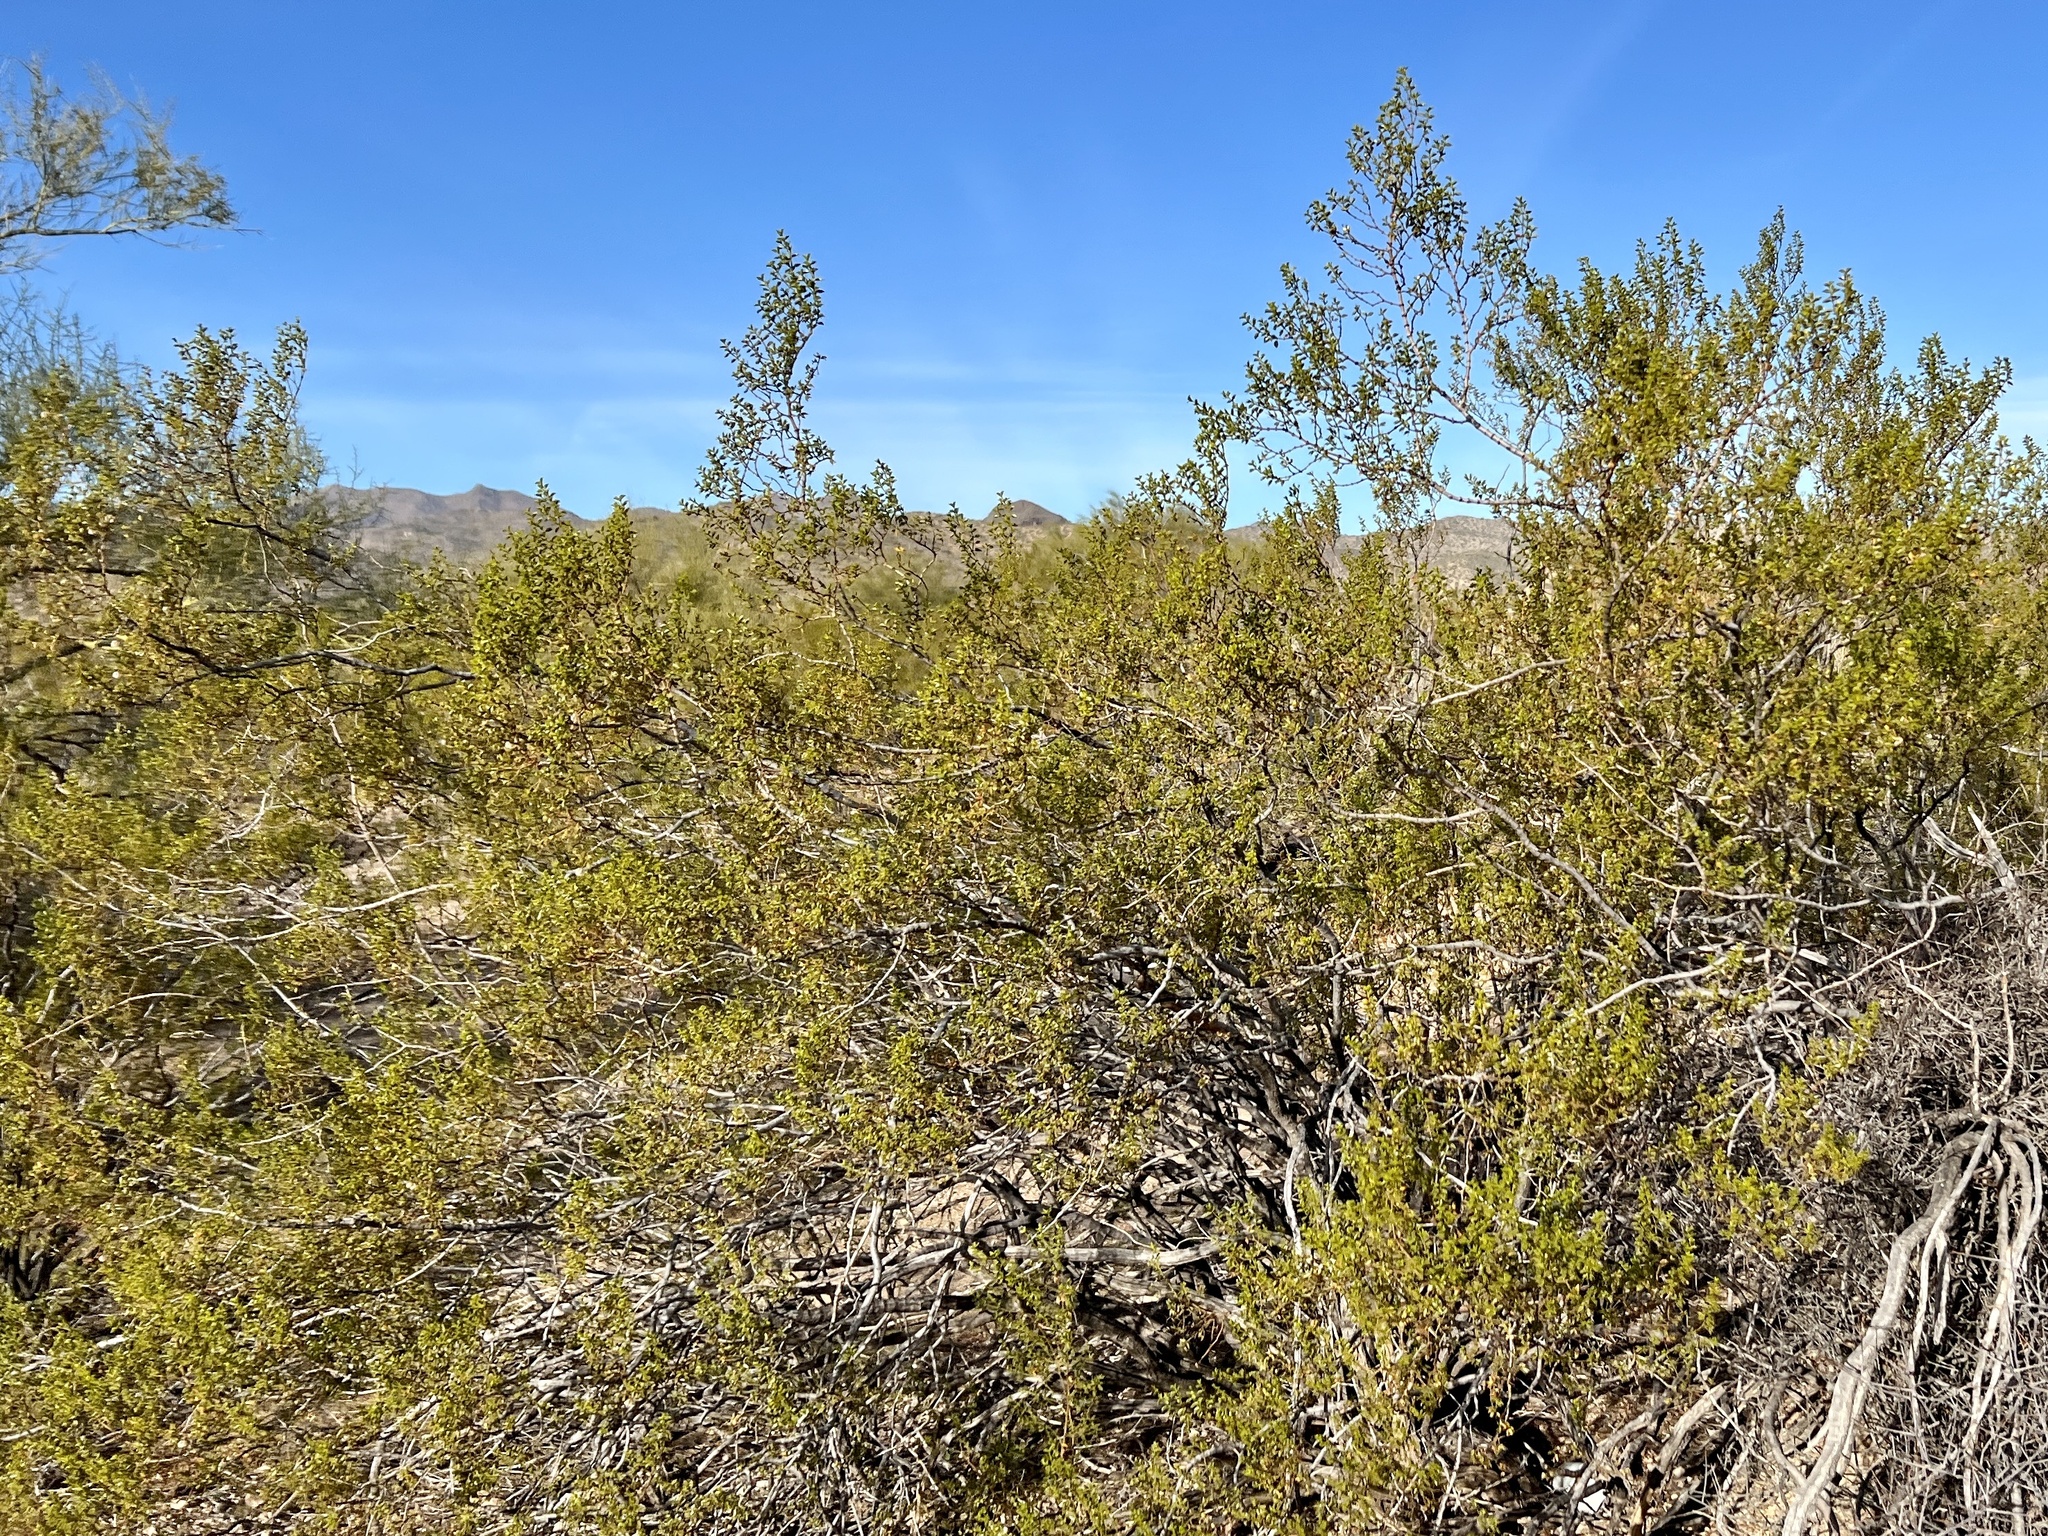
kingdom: Plantae
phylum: Tracheophyta
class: Magnoliopsida
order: Zygophyllales
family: Zygophyllaceae
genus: Larrea
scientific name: Larrea tridentata
